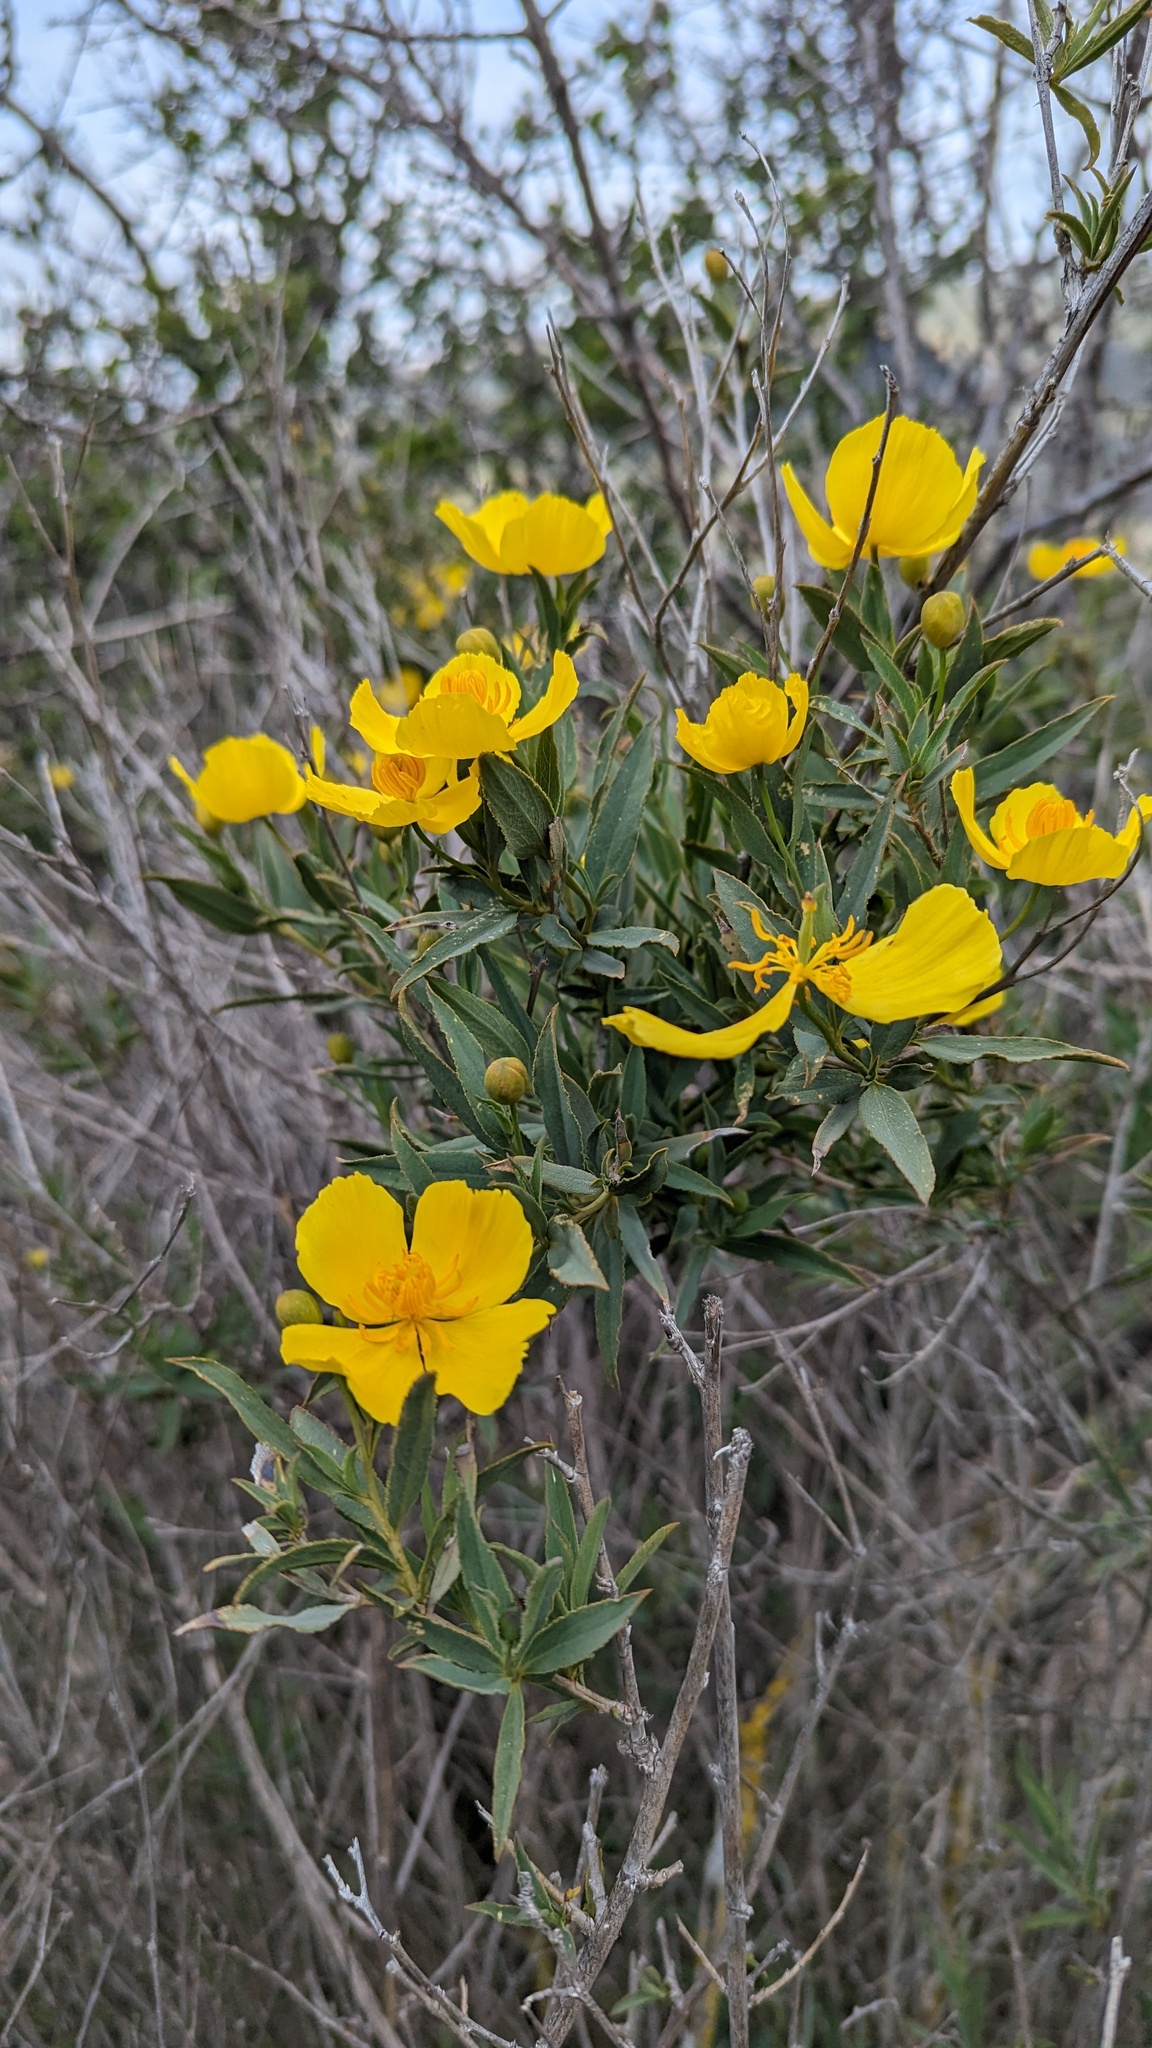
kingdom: Plantae
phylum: Tracheophyta
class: Magnoliopsida
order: Ranunculales
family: Papaveraceae
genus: Dendromecon
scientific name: Dendromecon rigida
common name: Tree poppy
